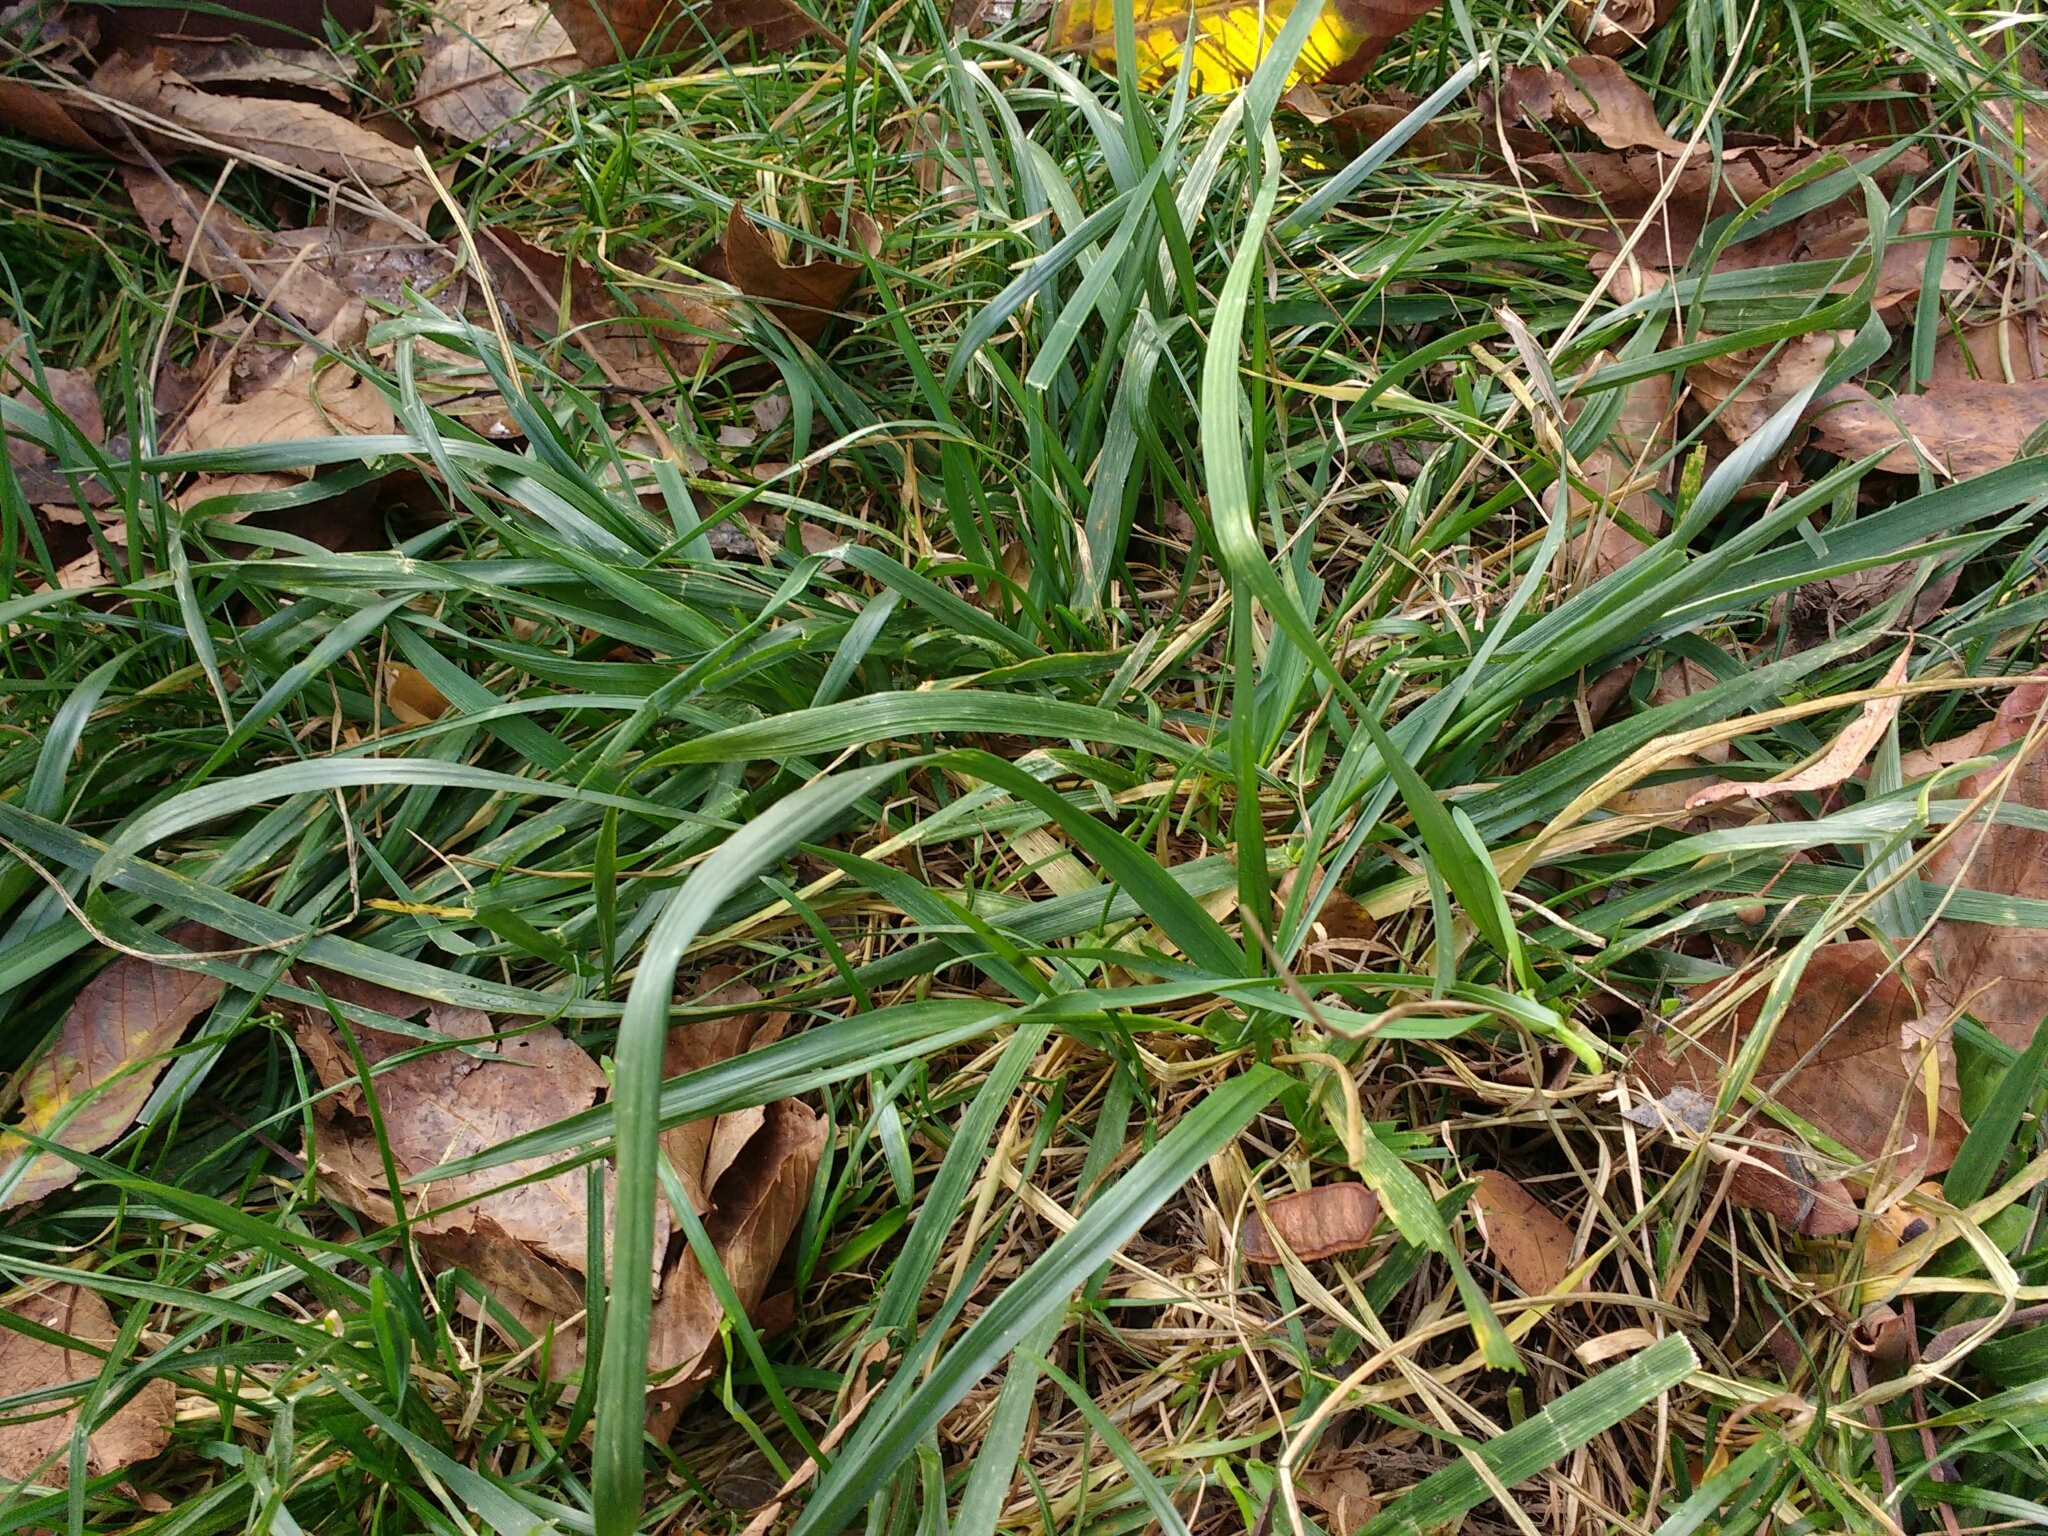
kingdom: Plantae
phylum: Tracheophyta
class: Liliopsida
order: Poales
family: Poaceae
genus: Lolium
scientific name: Lolium arundinaceum
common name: Reed fescue
